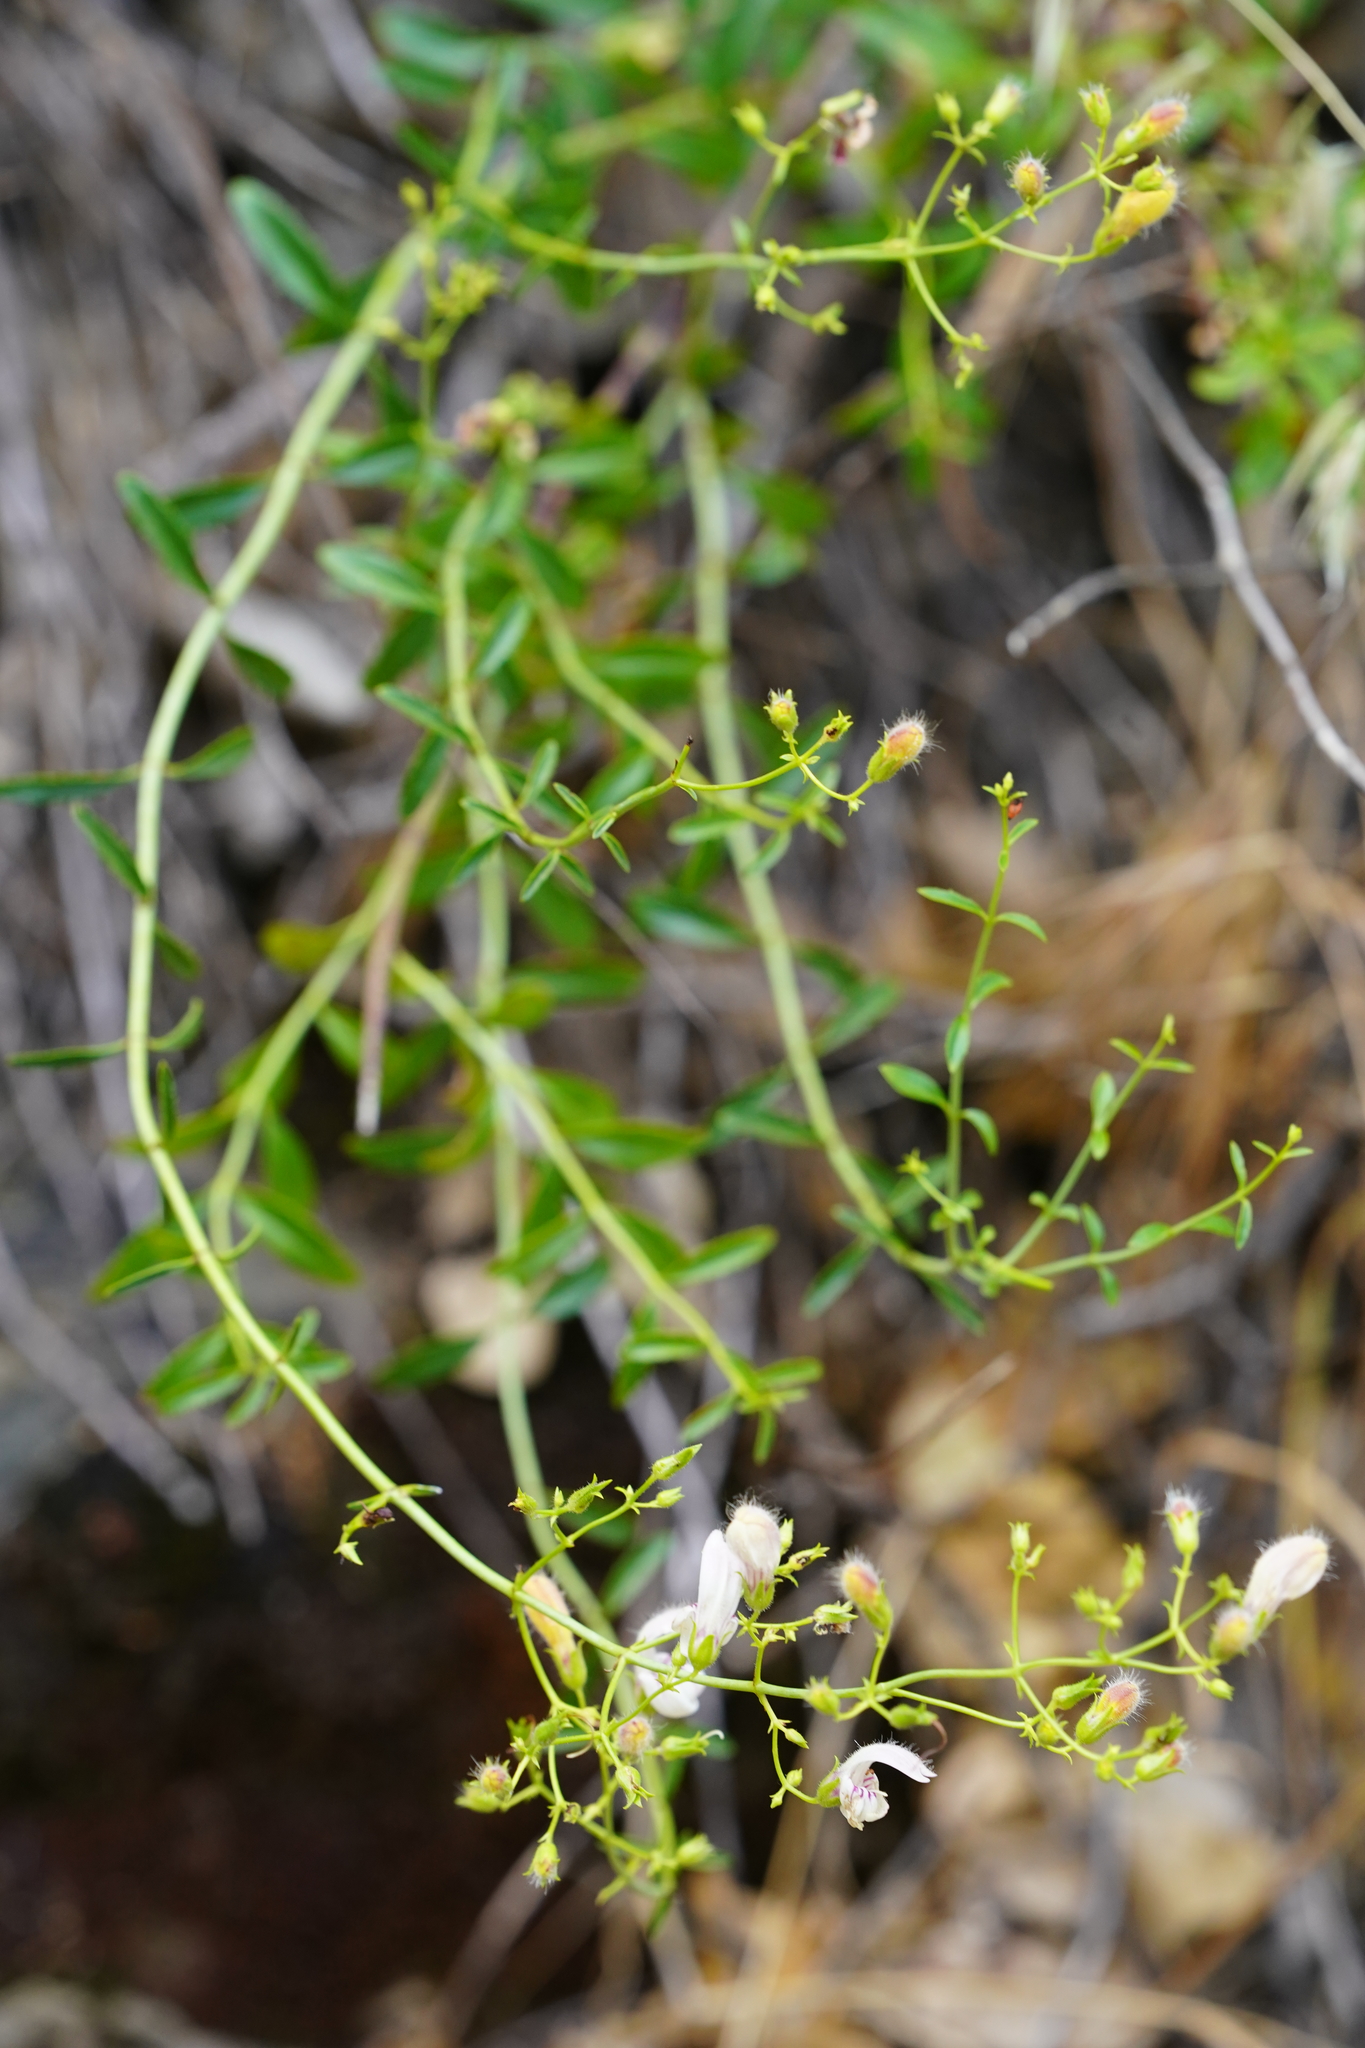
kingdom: Plantae
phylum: Tracheophyta
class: Magnoliopsida
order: Lamiales
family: Plantaginaceae
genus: Keckiella
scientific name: Keckiella breviflora
